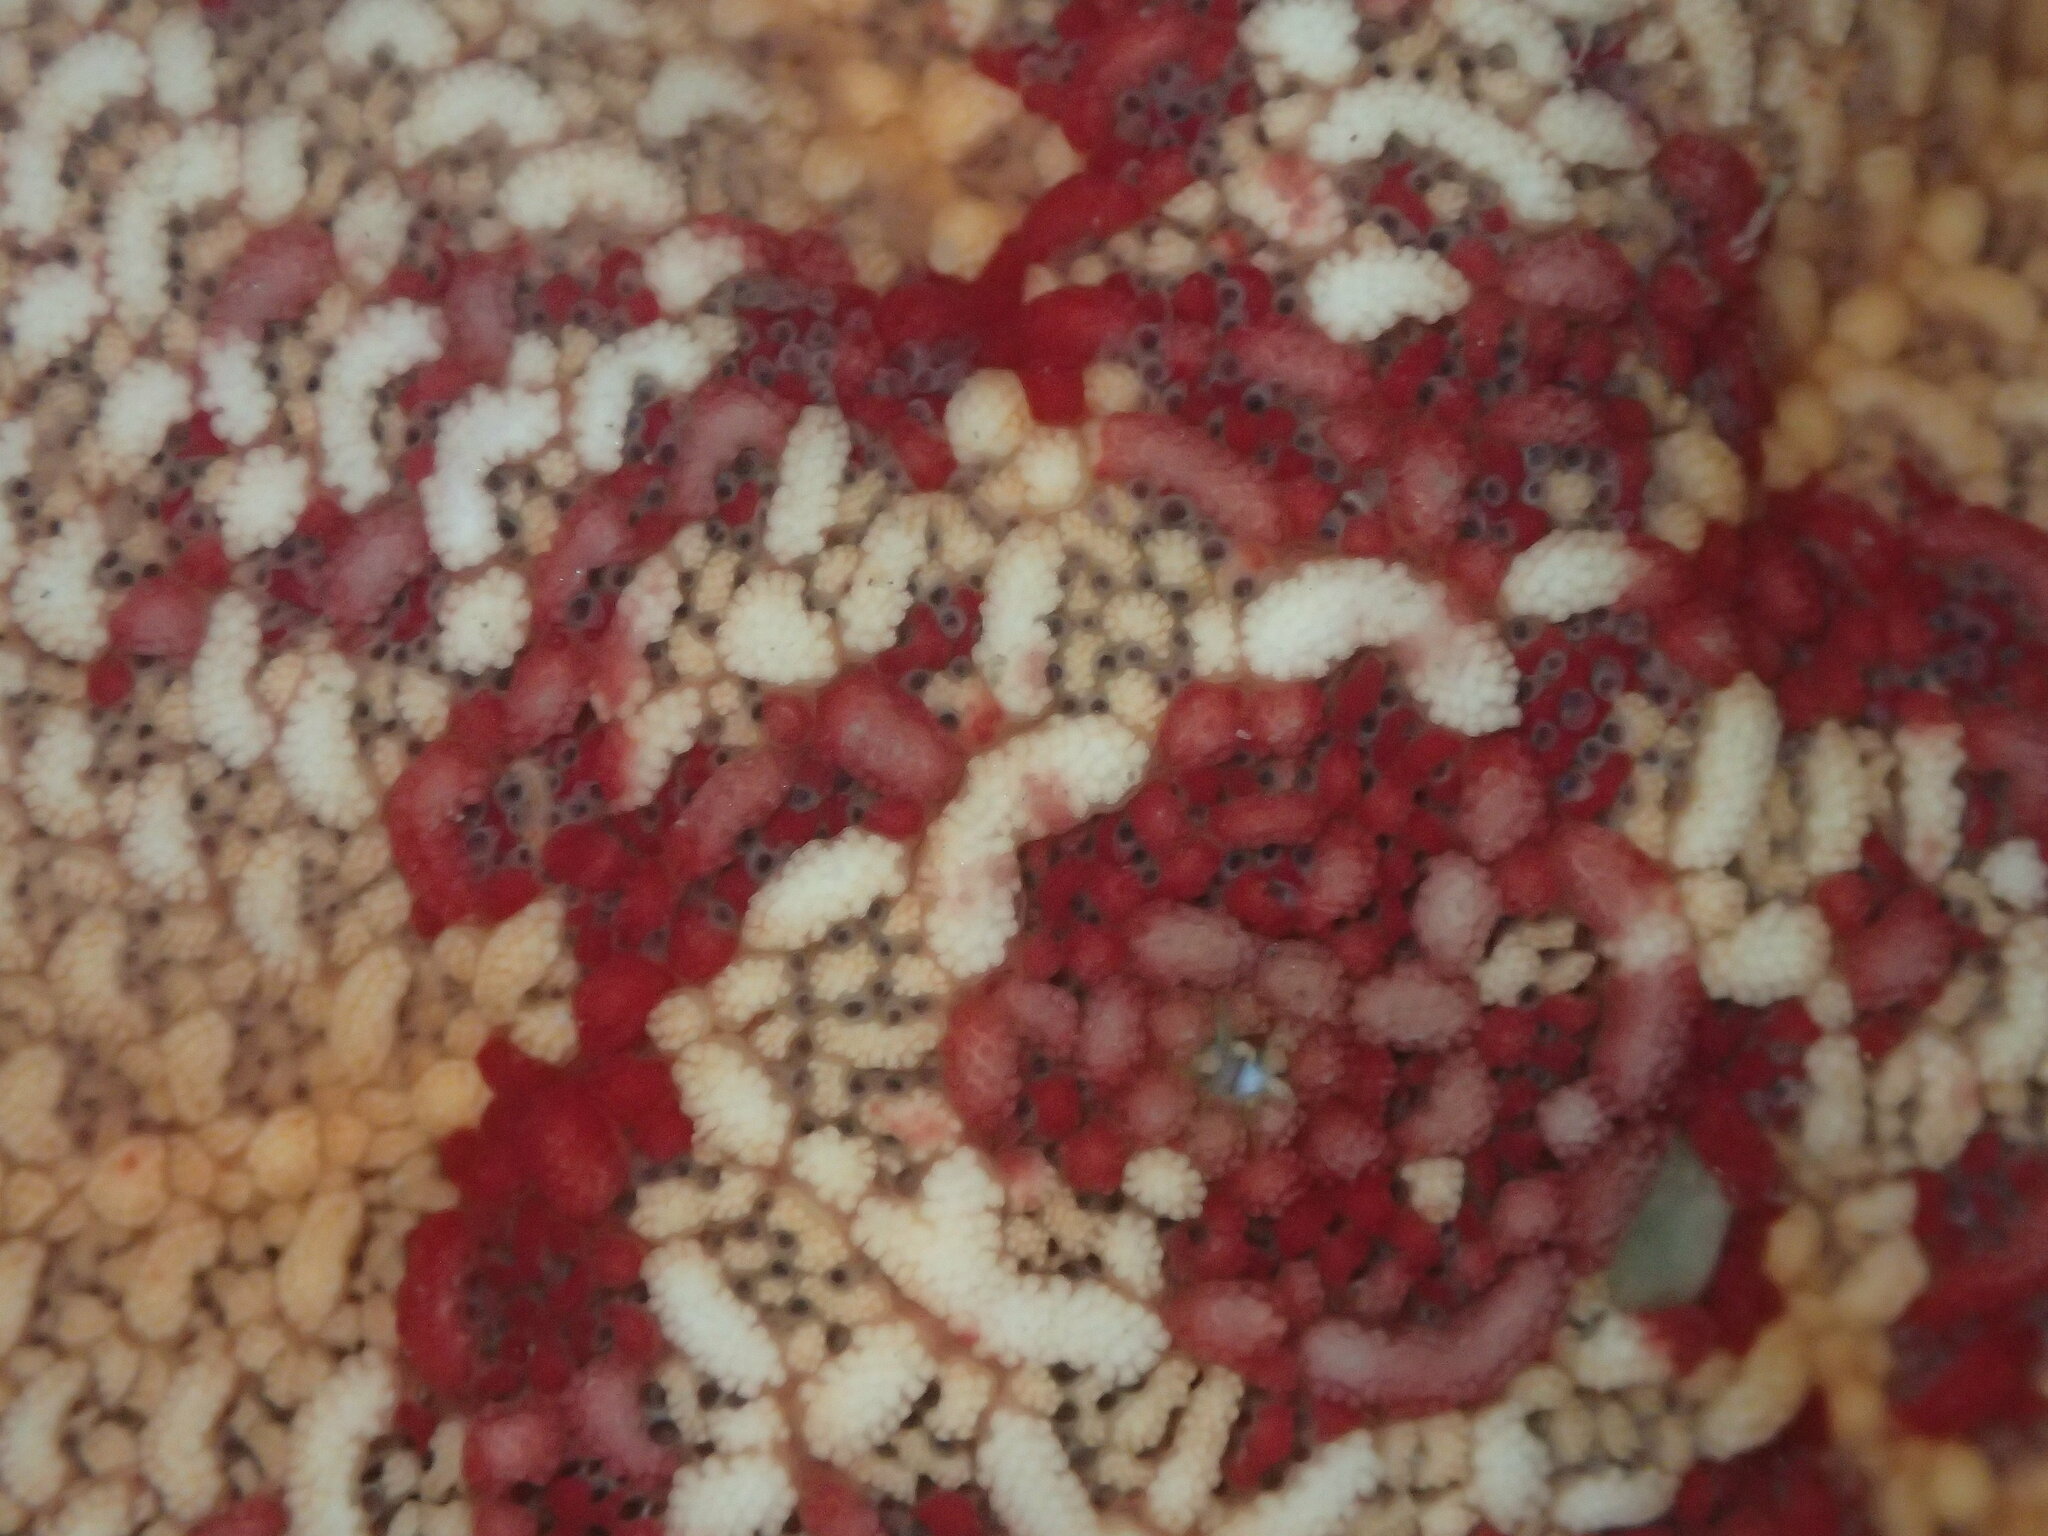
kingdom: Animalia
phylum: Echinodermata
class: Asteroidea
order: Valvatida
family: Asterinidae
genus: Patiria
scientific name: Patiria miniata
